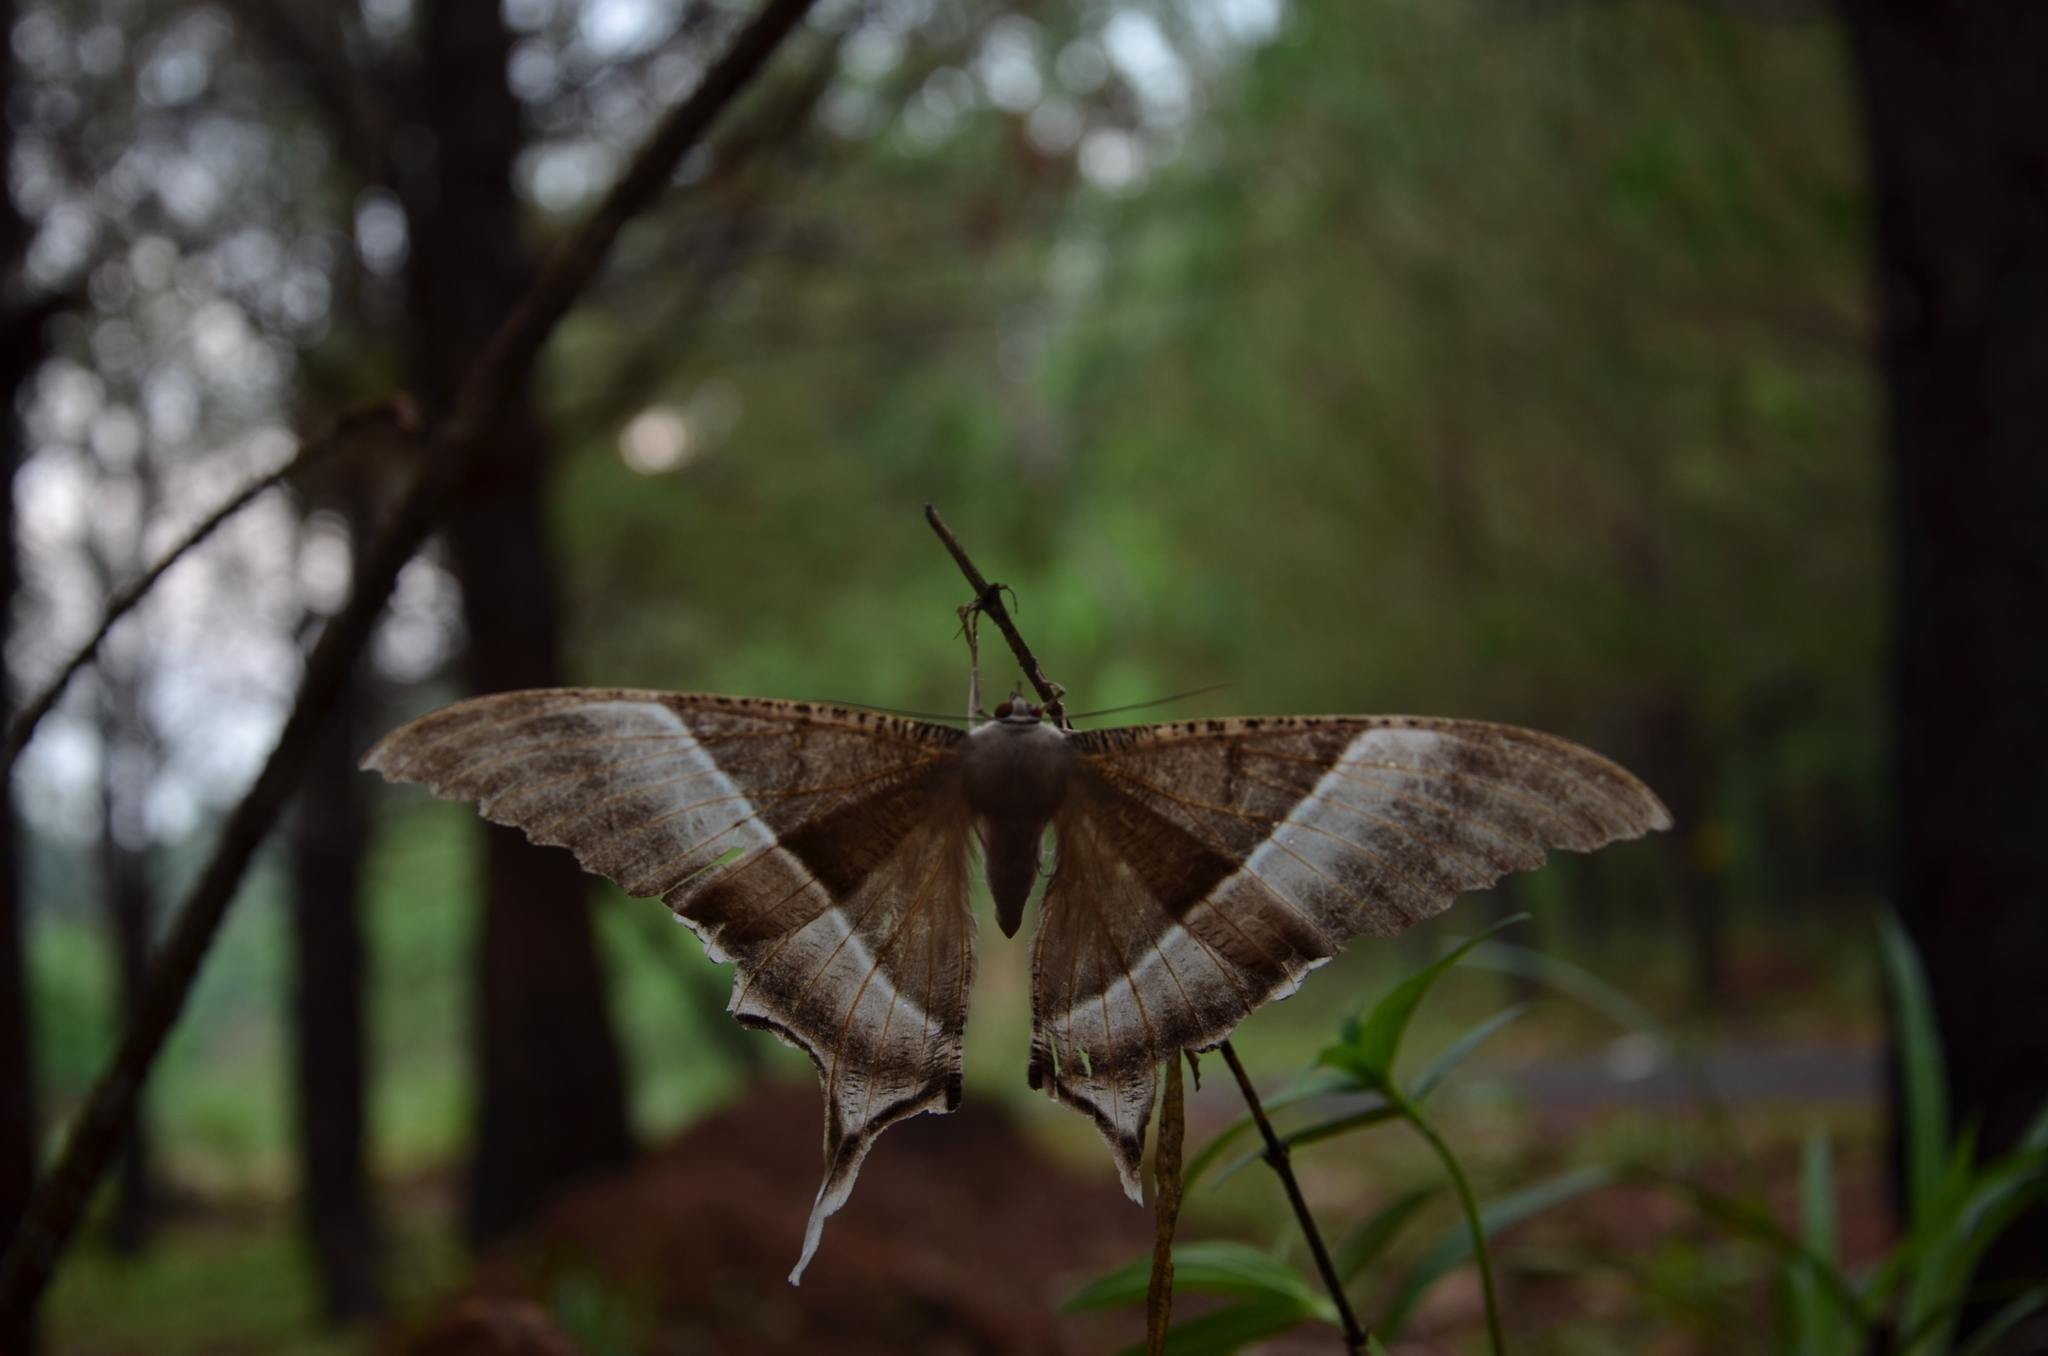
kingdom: Animalia
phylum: Arthropoda
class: Insecta
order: Lepidoptera
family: Uraniidae
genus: Lyssa
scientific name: Lyssa zampa
